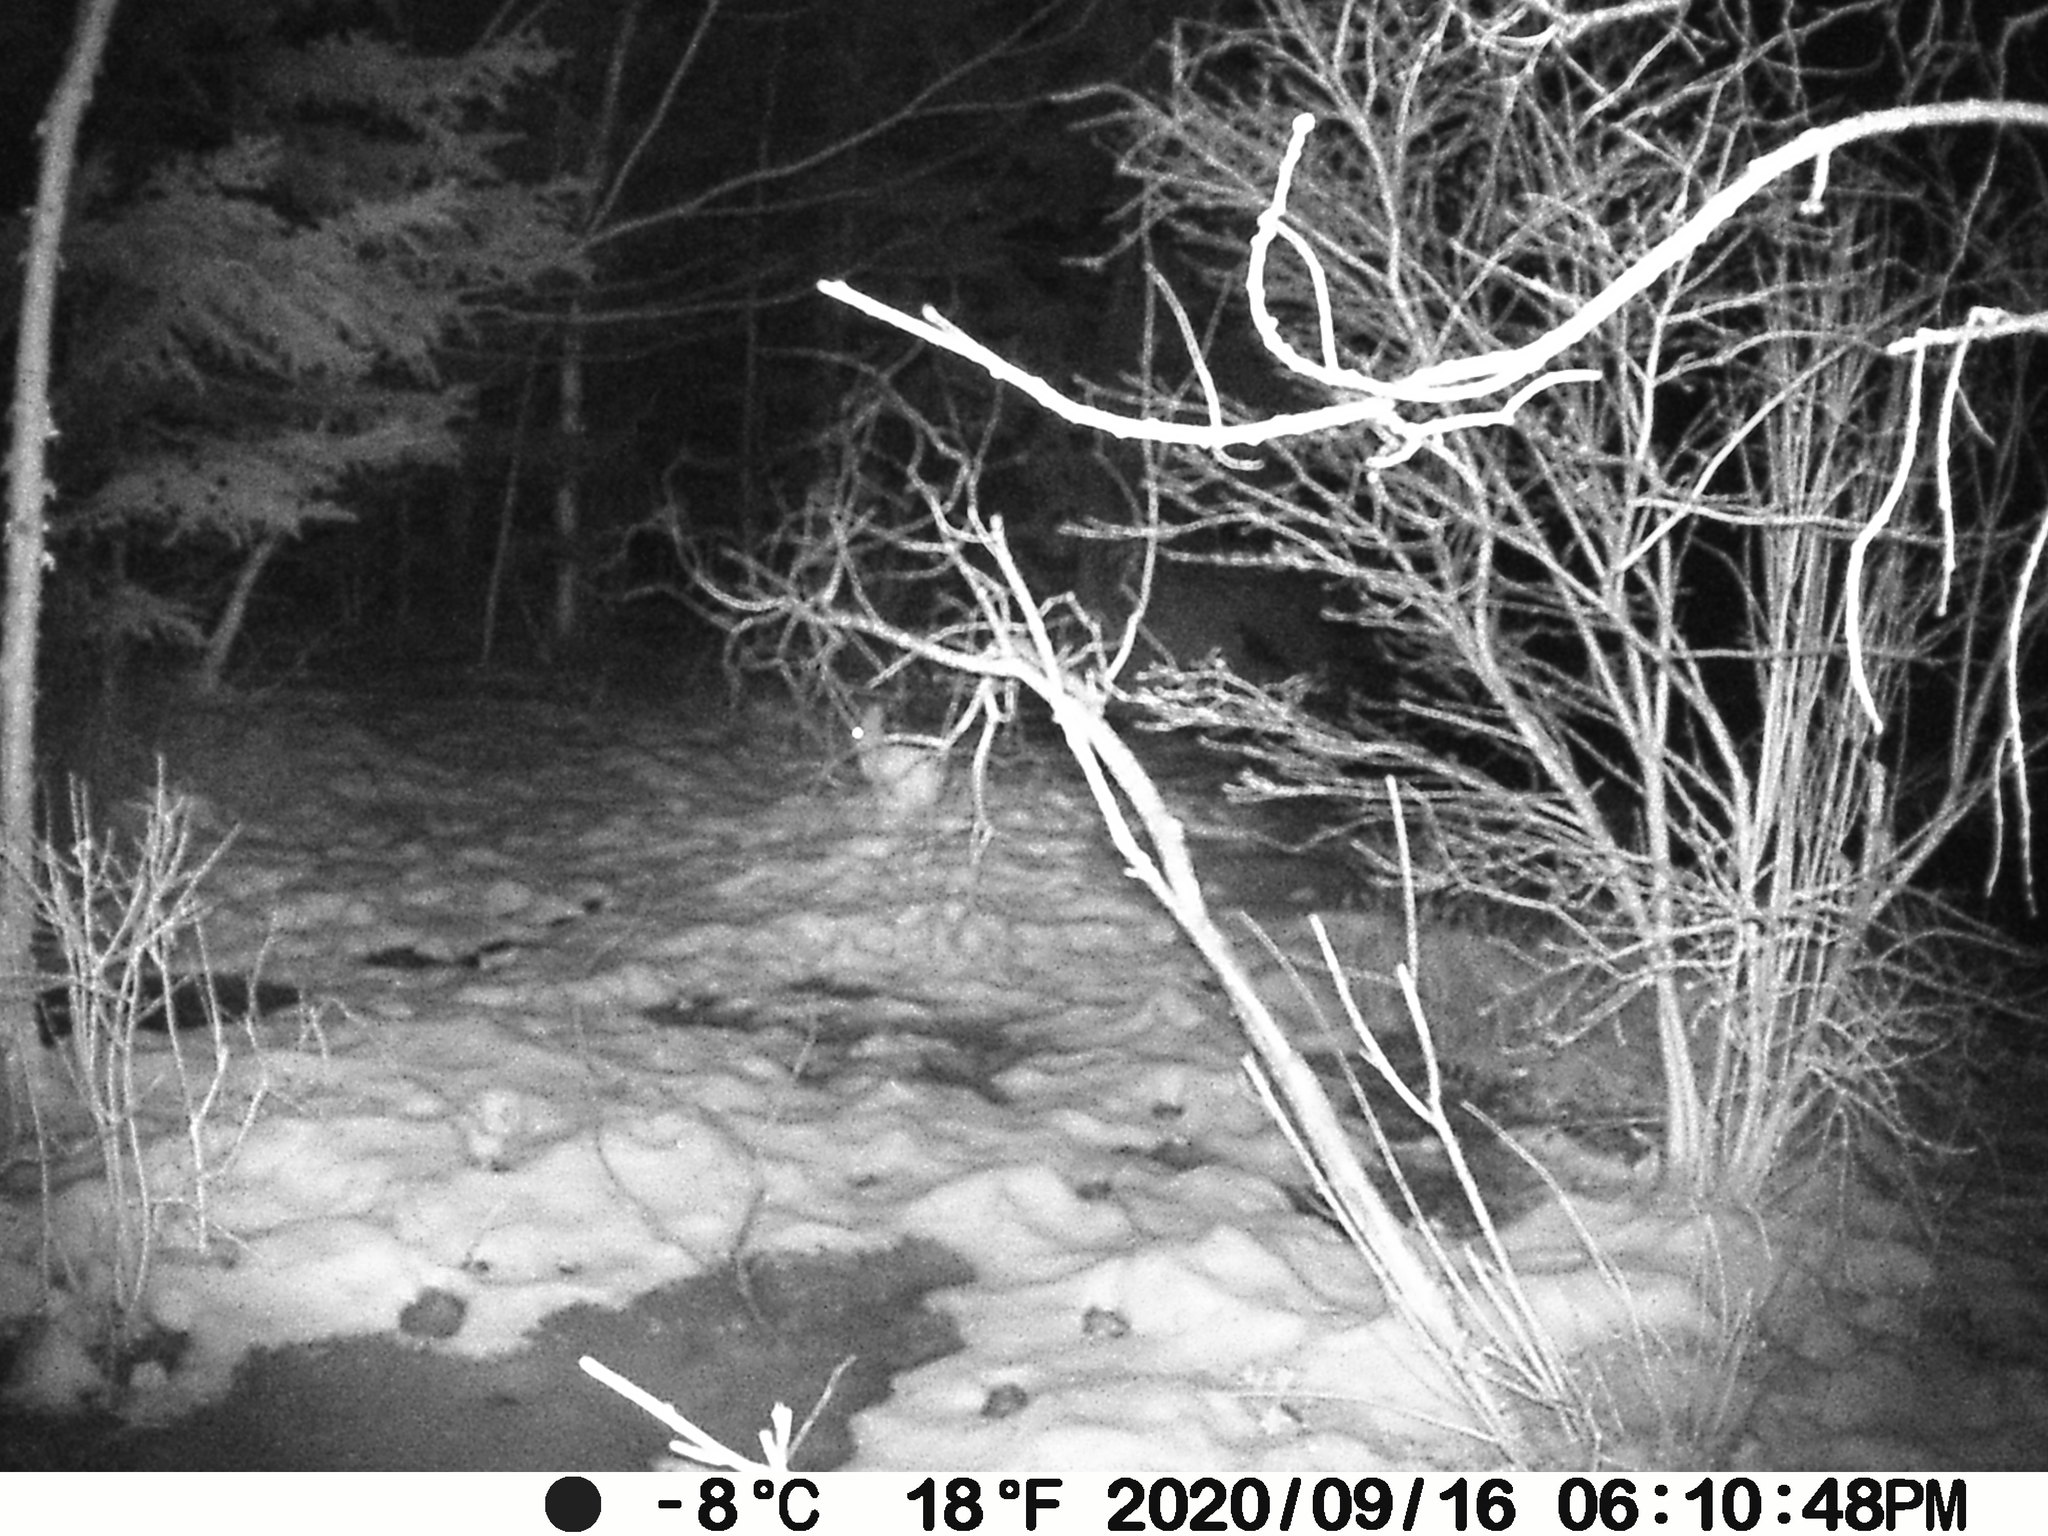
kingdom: Animalia
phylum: Chordata
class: Mammalia
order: Lagomorpha
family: Leporidae
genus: Lepus
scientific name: Lepus americanus
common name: Snowshoe hare
